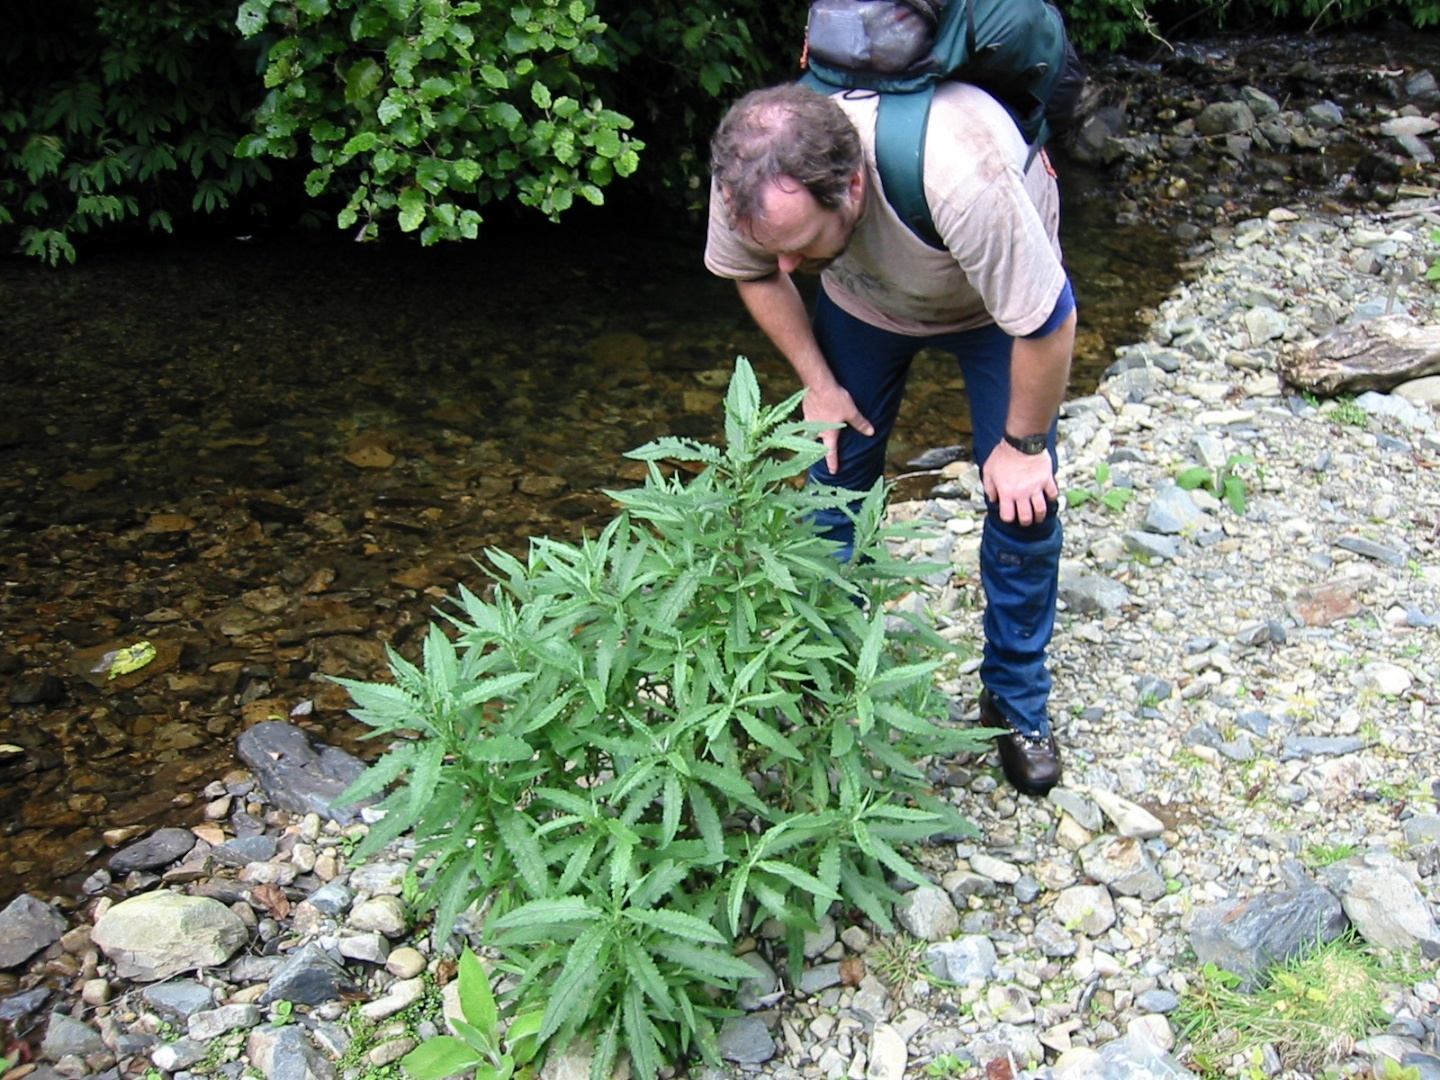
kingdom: Plantae
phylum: Tracheophyta
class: Magnoliopsida
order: Asterales
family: Asteraceae
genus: Senecio
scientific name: Senecio minimus
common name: Toothed fireweed
